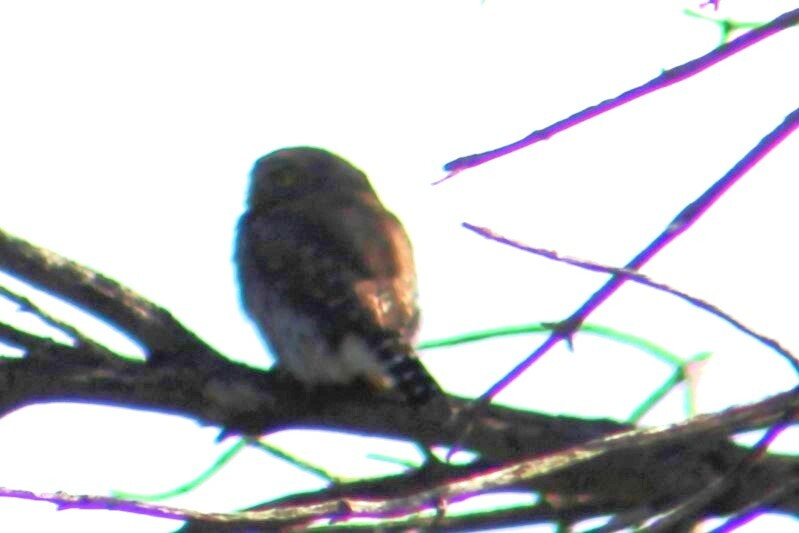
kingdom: Animalia
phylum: Chordata
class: Aves
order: Strigiformes
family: Strigidae
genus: Glaucidium
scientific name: Glaucidium gnoma
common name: Northern pygmy-owl
